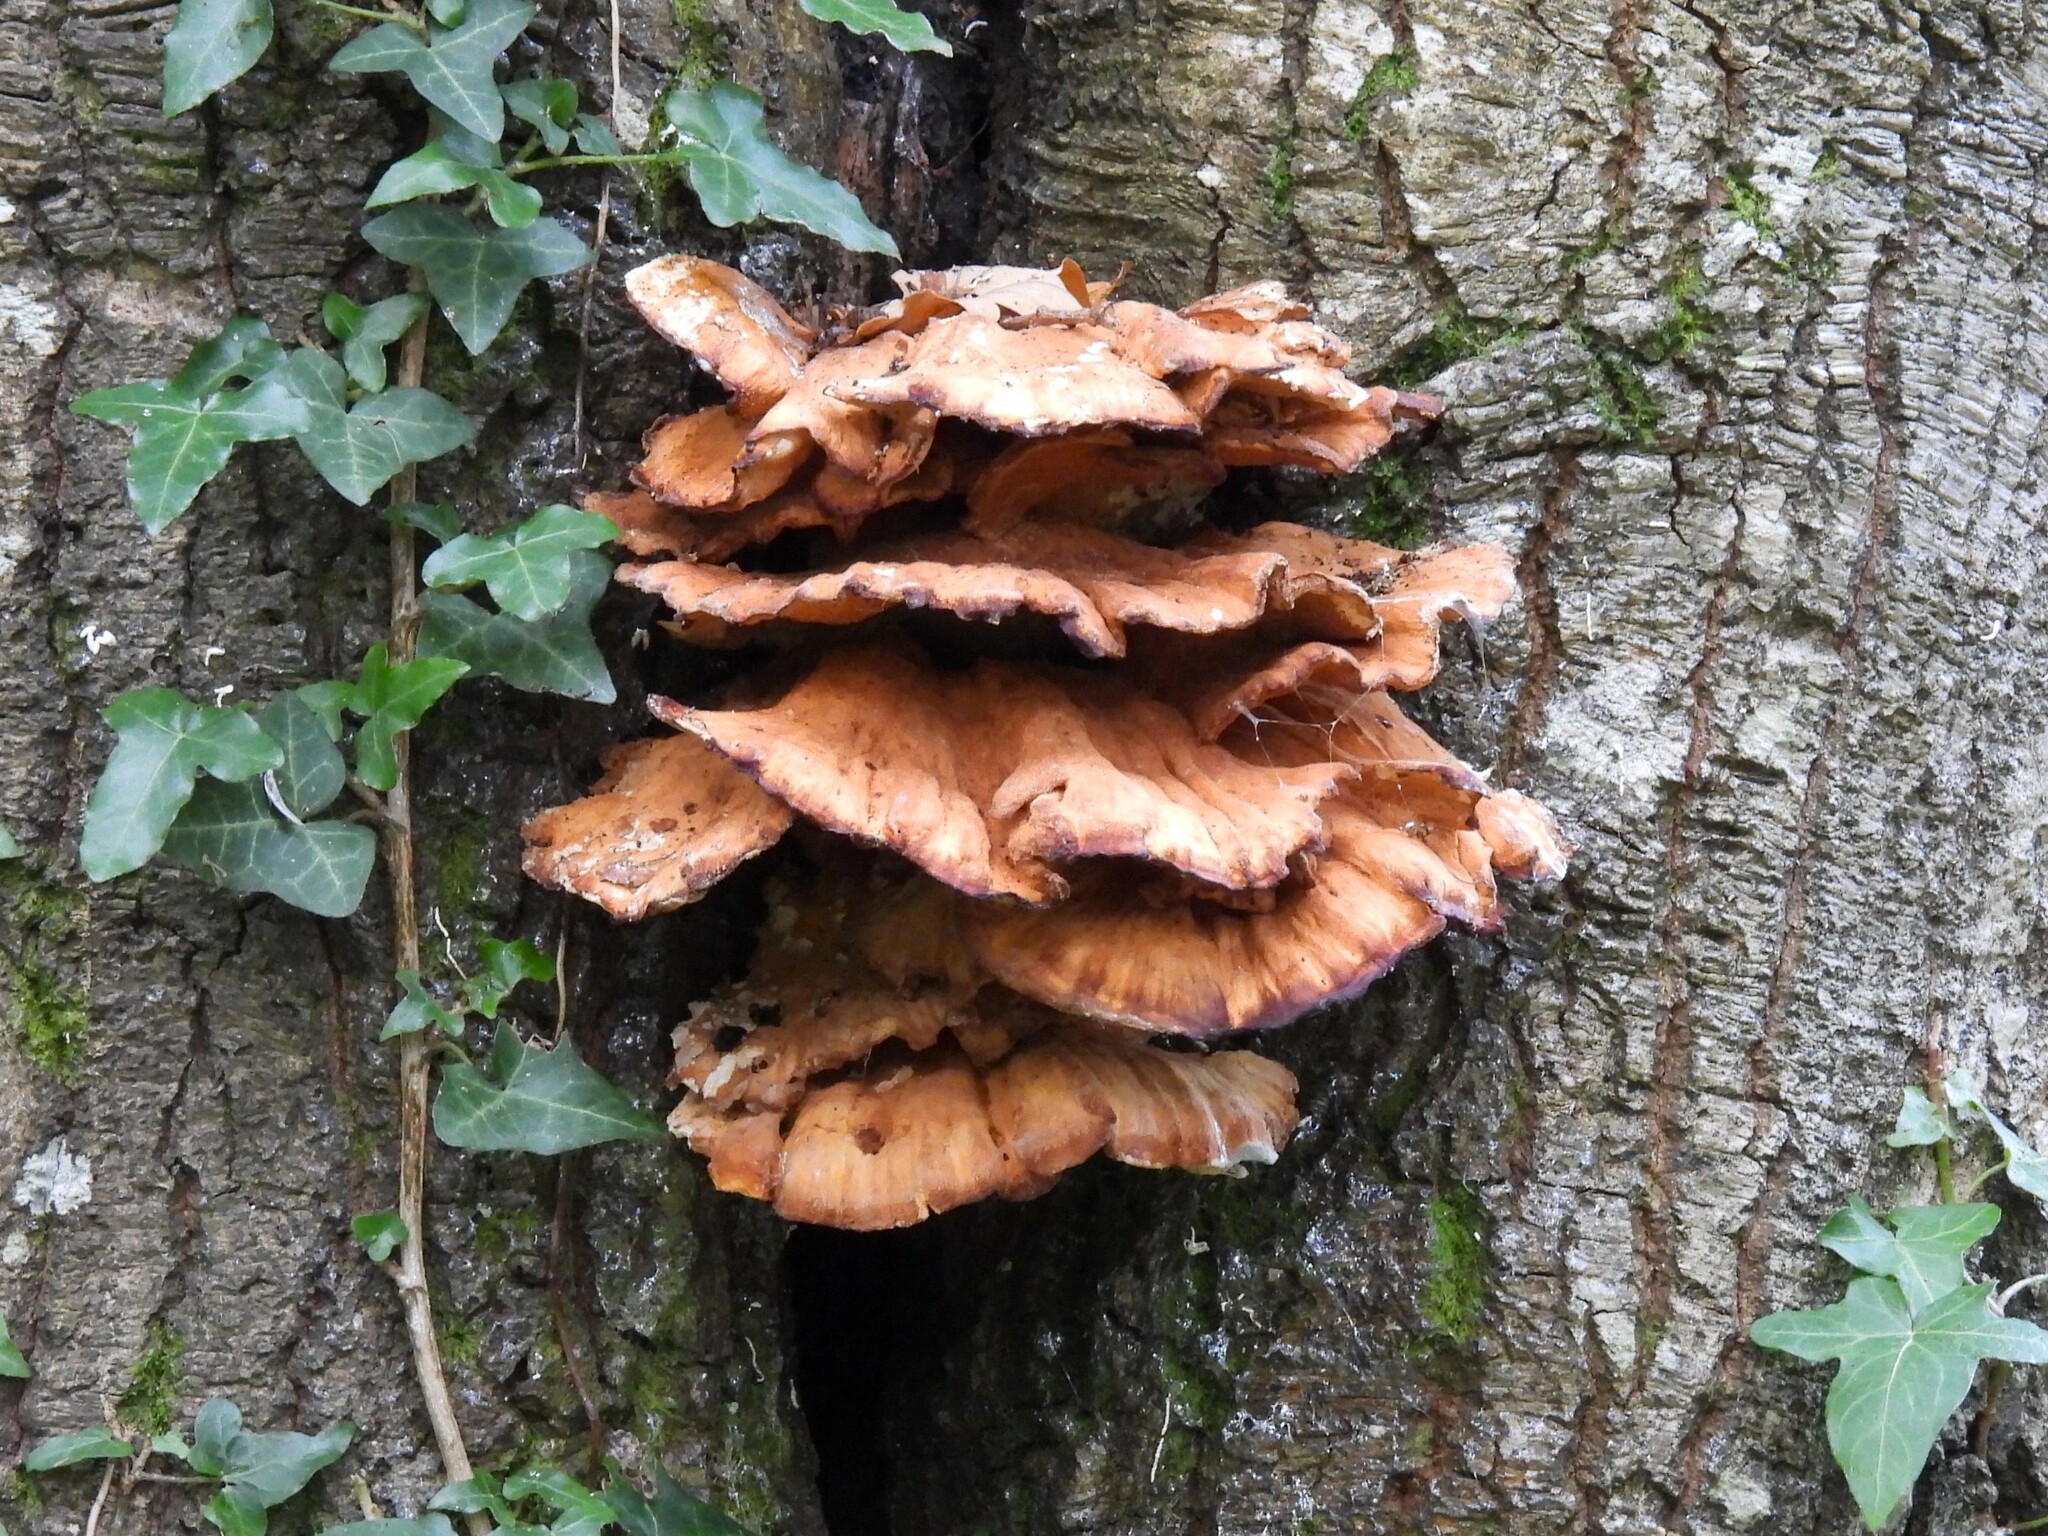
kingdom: Fungi
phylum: Basidiomycota
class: Agaricomycetes
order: Polyporales
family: Meripilaceae
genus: Meripilus
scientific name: Meripilus giganteus
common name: Giant polypore
